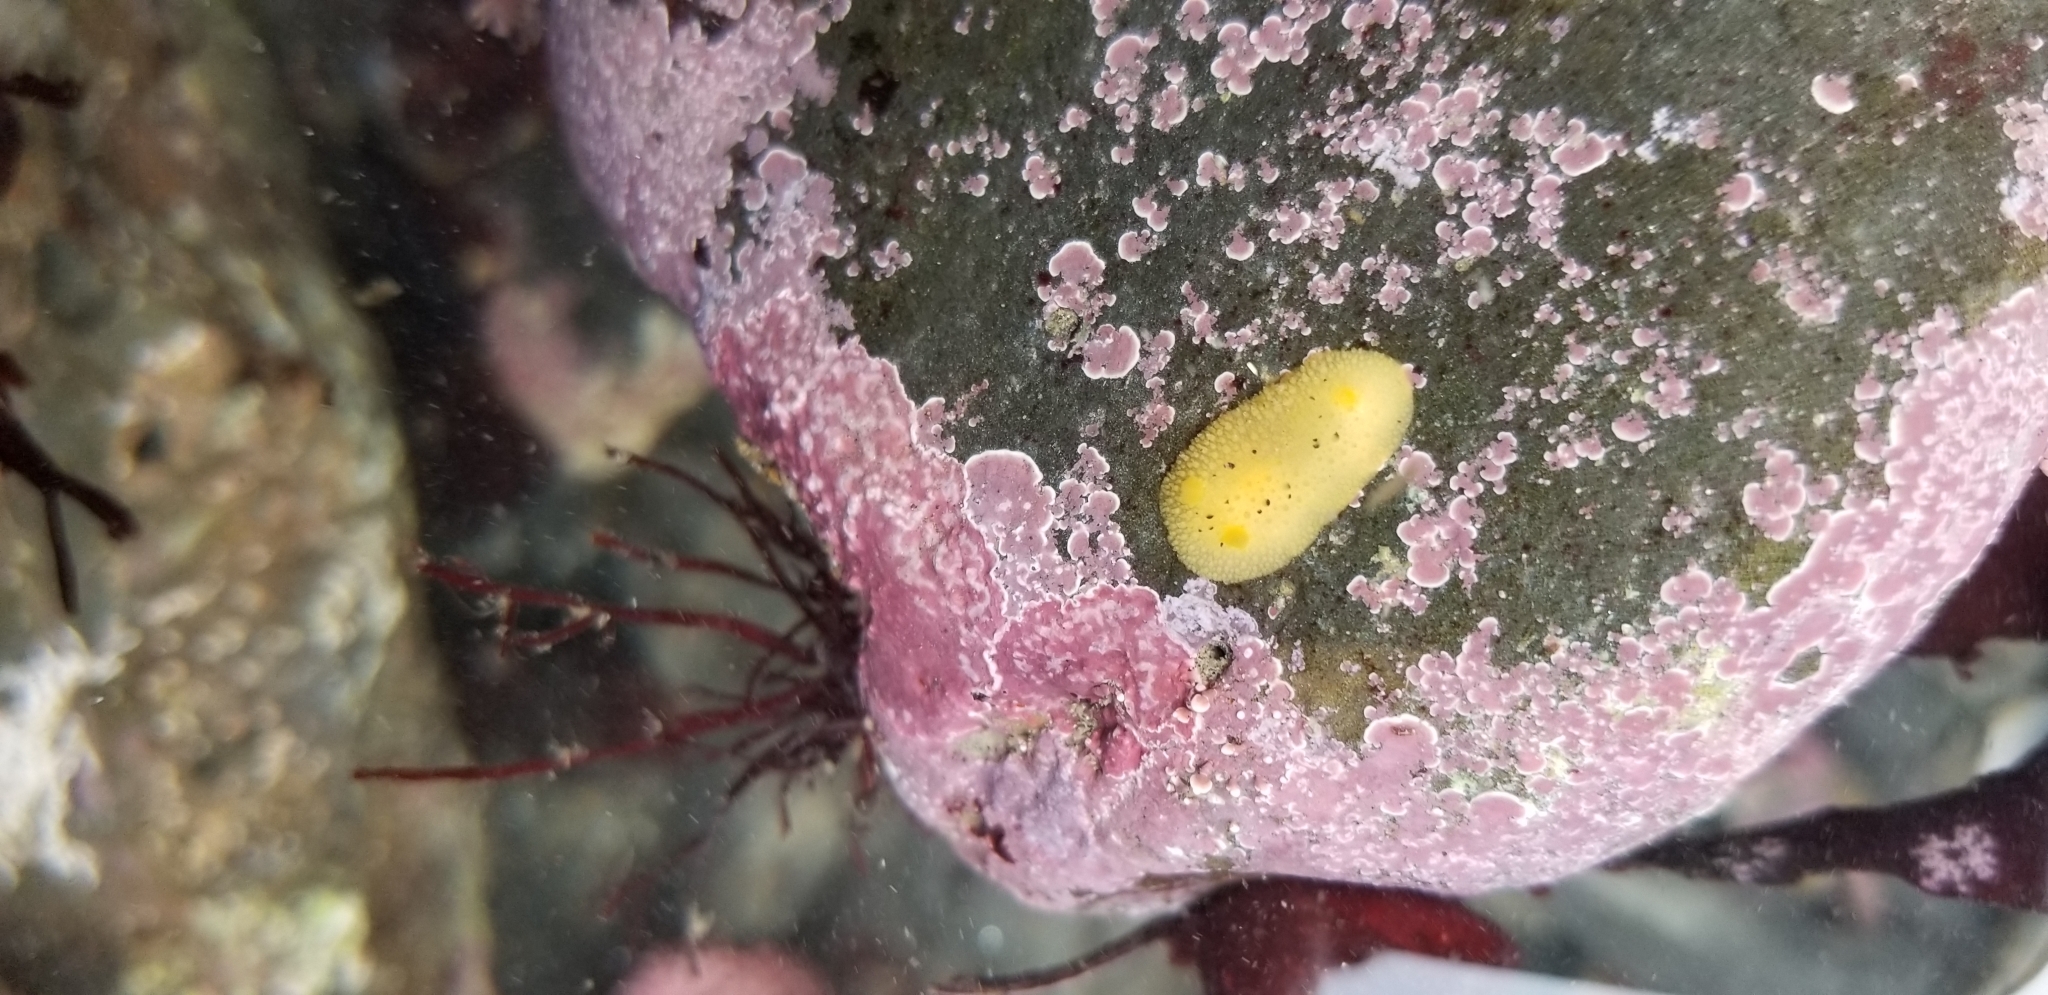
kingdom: Animalia
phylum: Mollusca
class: Gastropoda
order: Nudibranchia
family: Dorididae
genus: Doris
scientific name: Doris montereyensis
